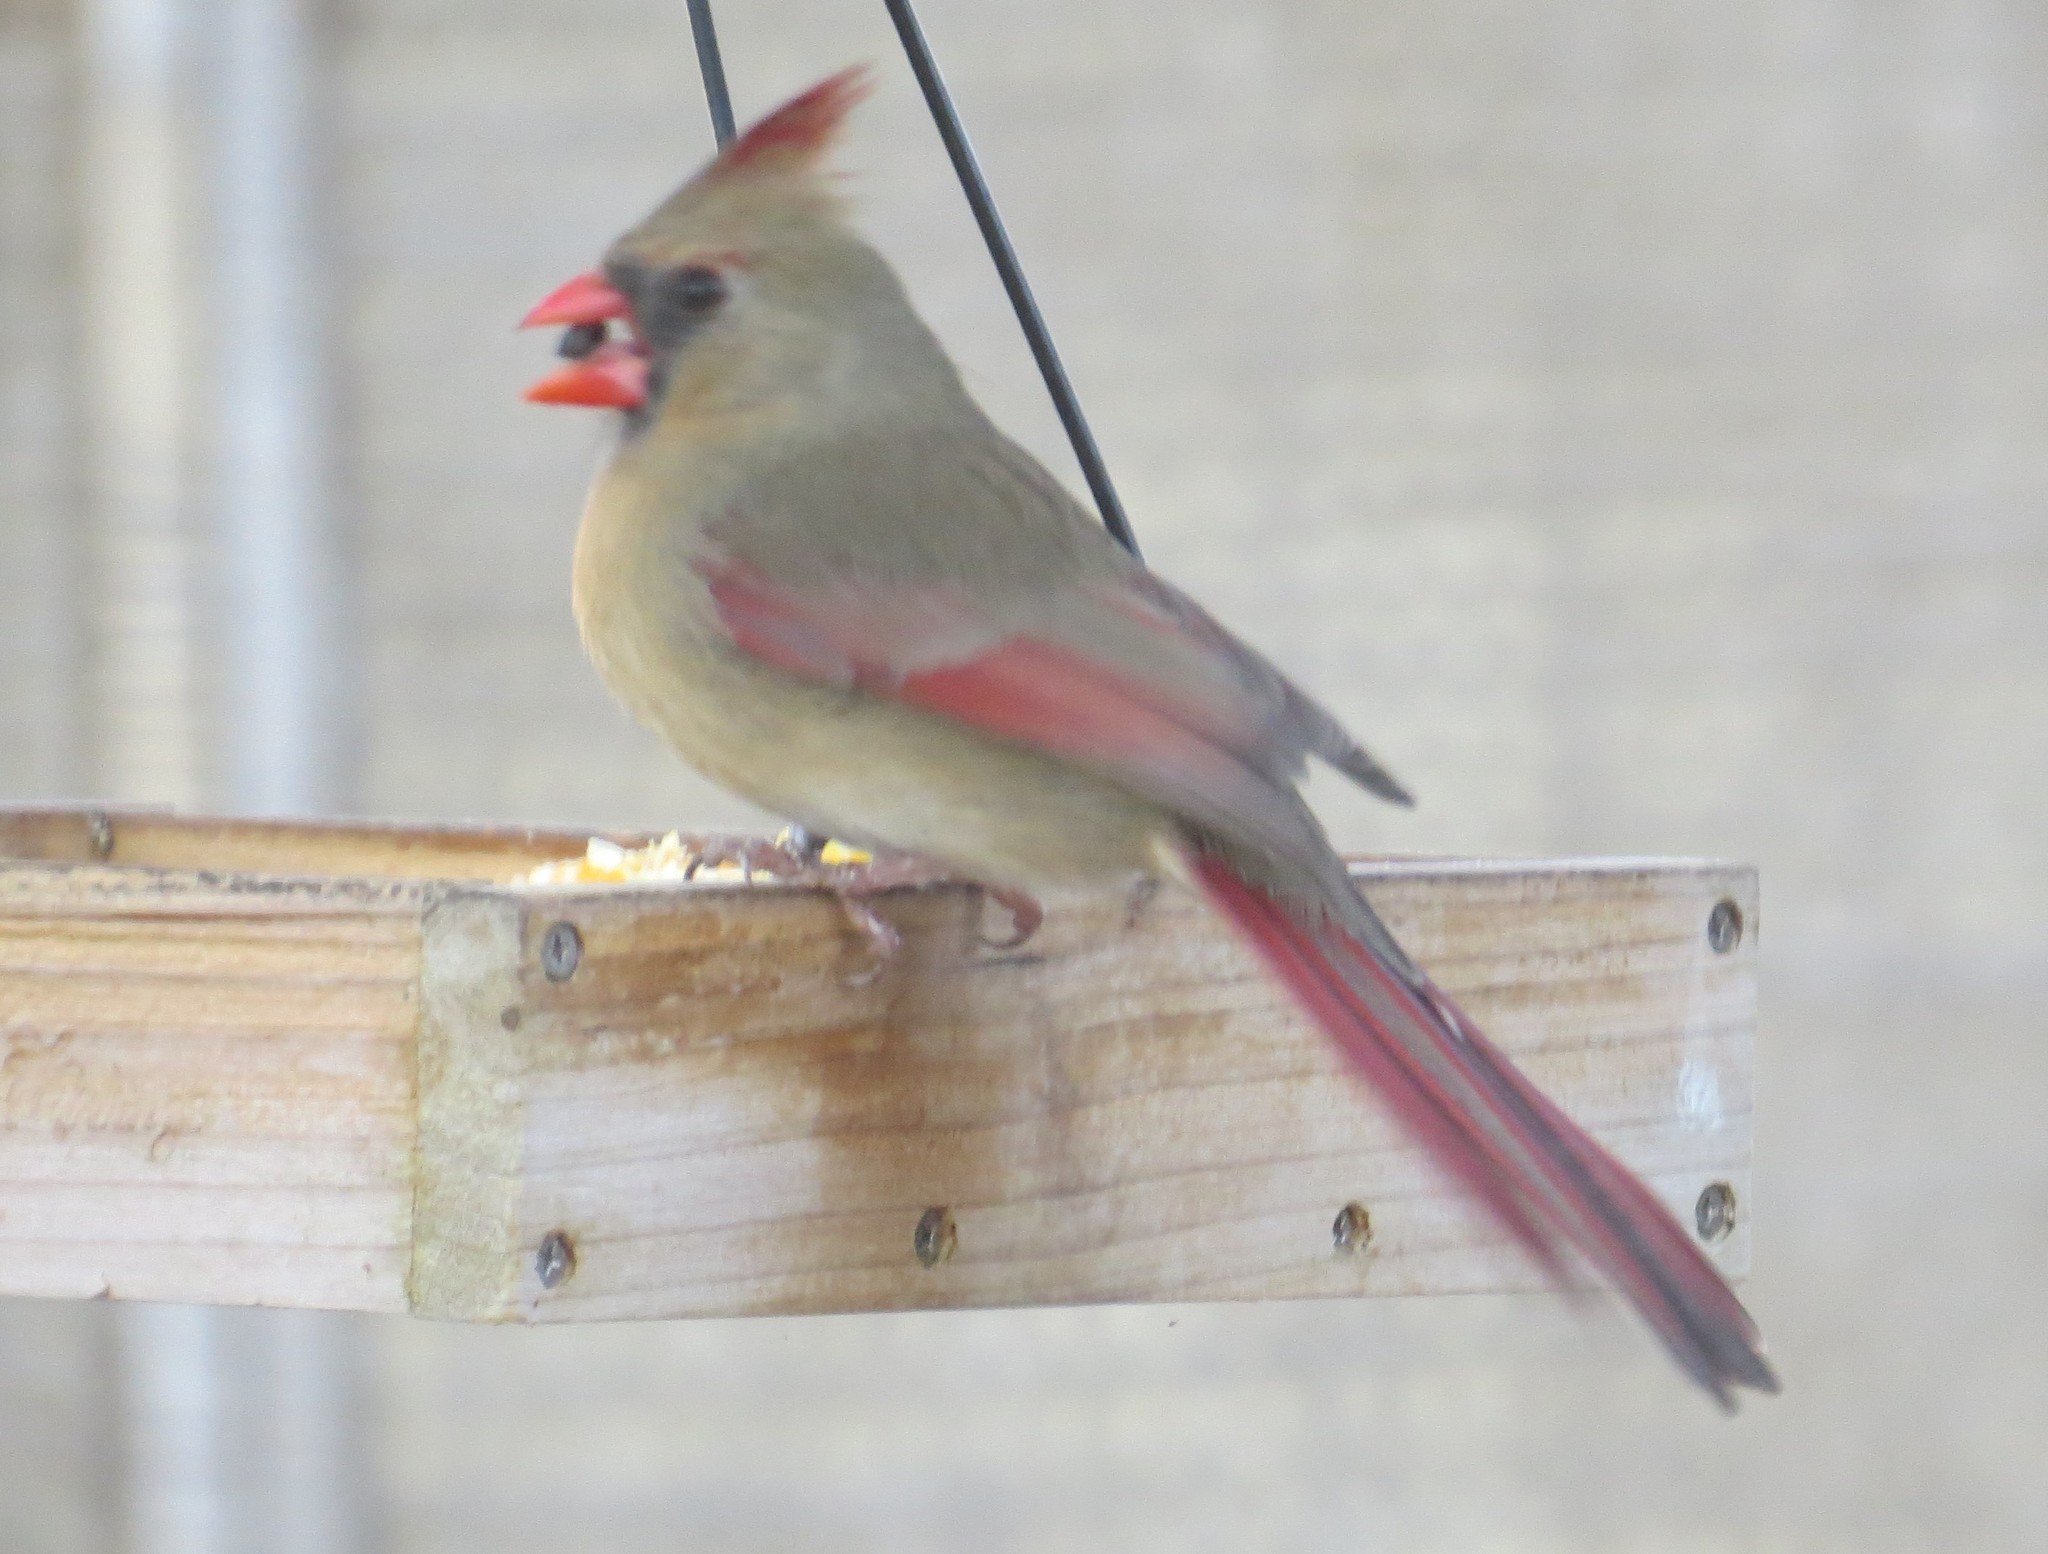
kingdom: Animalia
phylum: Chordata
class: Aves
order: Passeriformes
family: Cardinalidae
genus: Cardinalis
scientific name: Cardinalis cardinalis
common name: Northern cardinal
